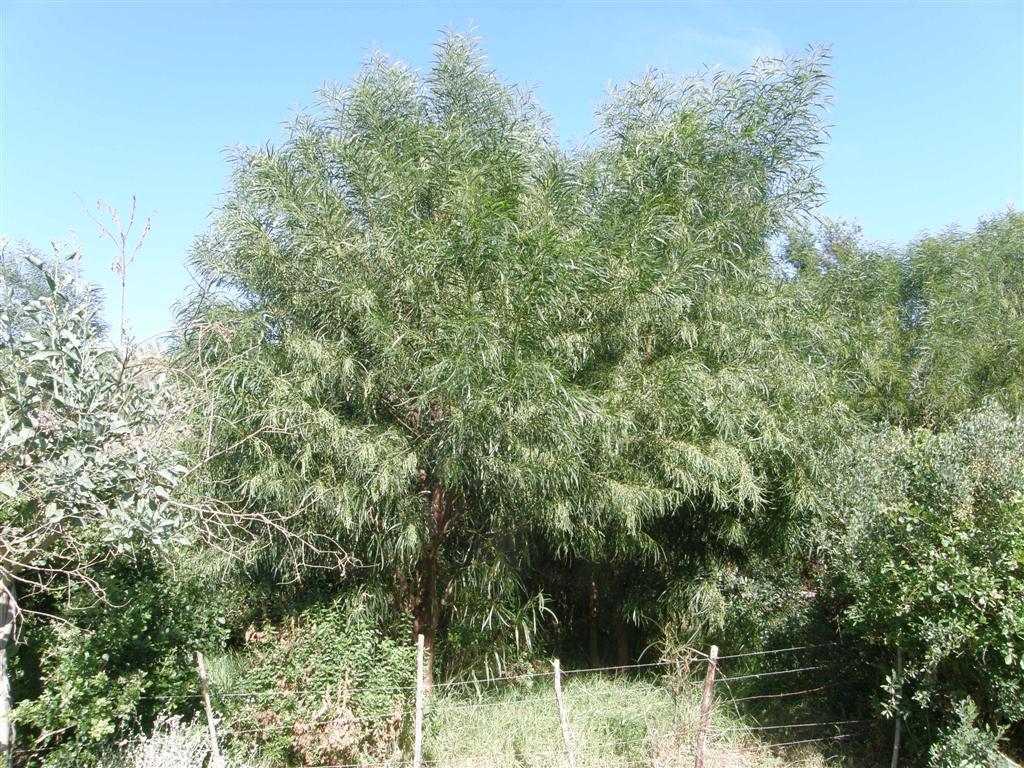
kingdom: Plantae
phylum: Tracheophyta
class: Magnoliopsida
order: Fabales
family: Fabaceae
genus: Acacia
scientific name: Acacia saligna
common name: Orange wattle
